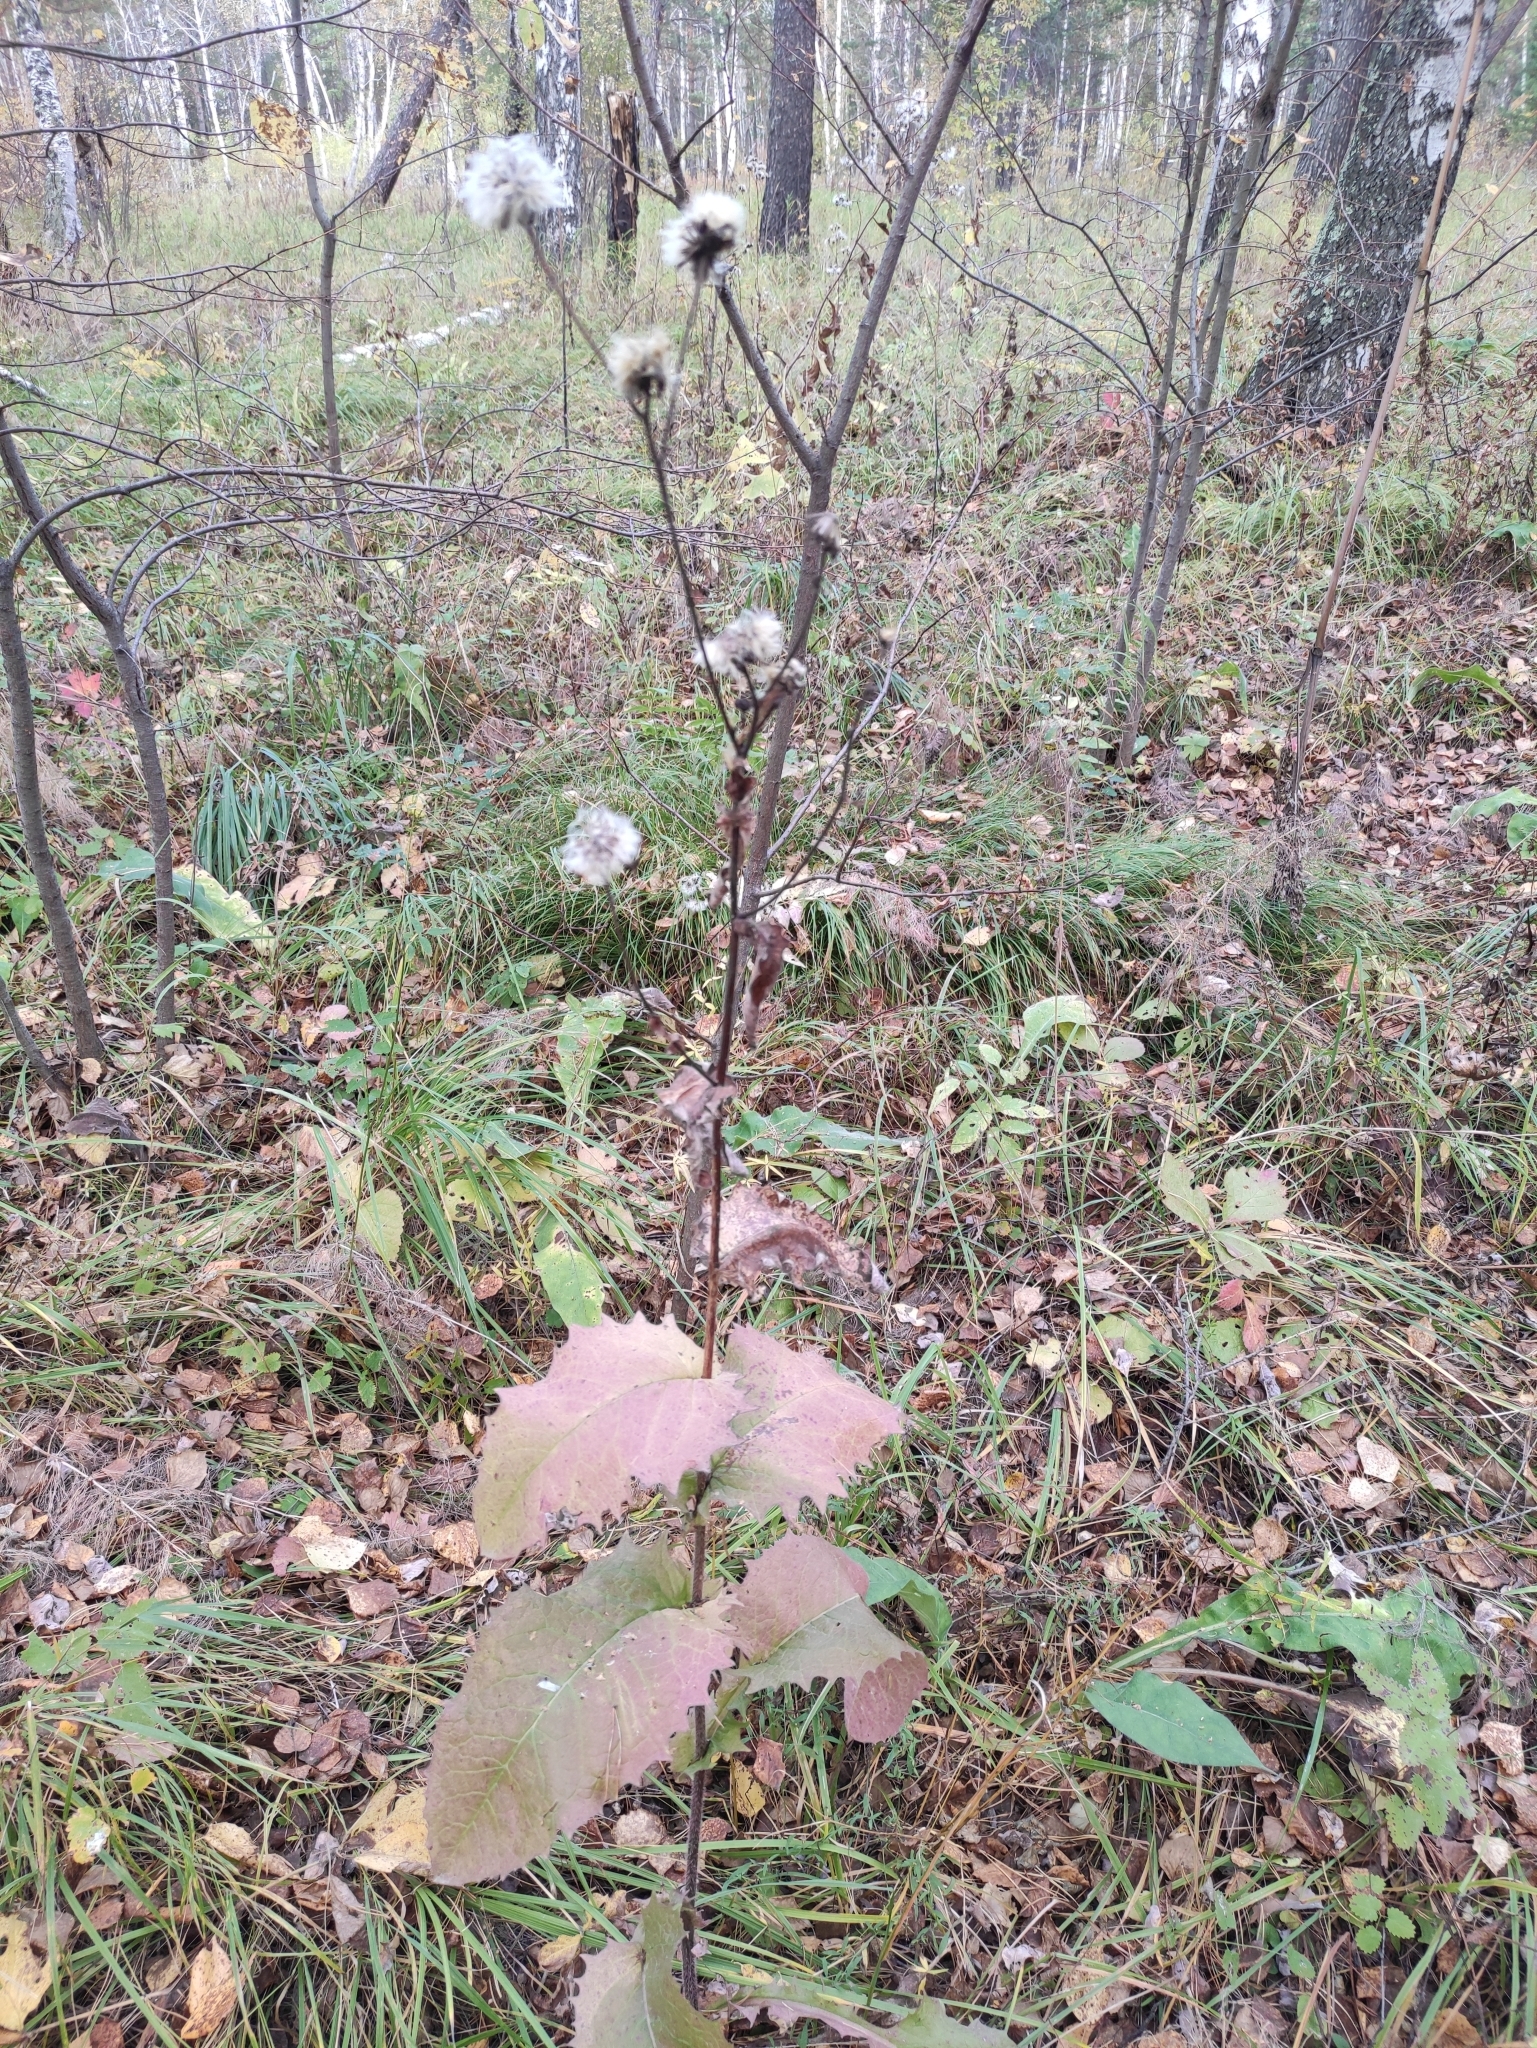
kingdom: Plantae
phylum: Tracheophyta
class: Magnoliopsida
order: Asterales
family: Asteraceae
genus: Crepis
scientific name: Crepis sibirica
